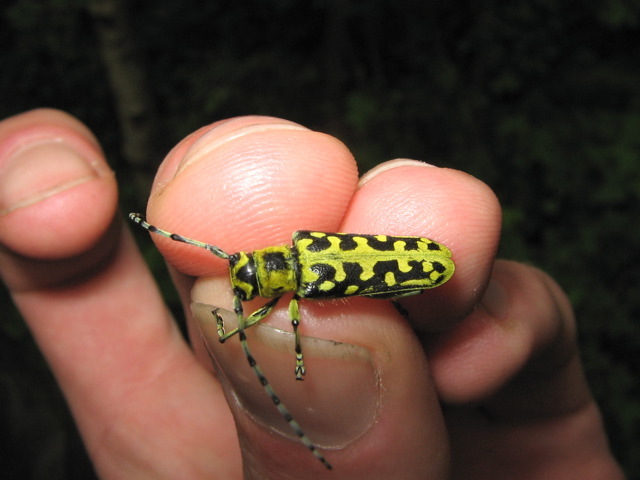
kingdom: Animalia
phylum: Arthropoda
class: Insecta
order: Coleoptera
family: Cerambycidae
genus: Saperda
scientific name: Saperda scalaris
